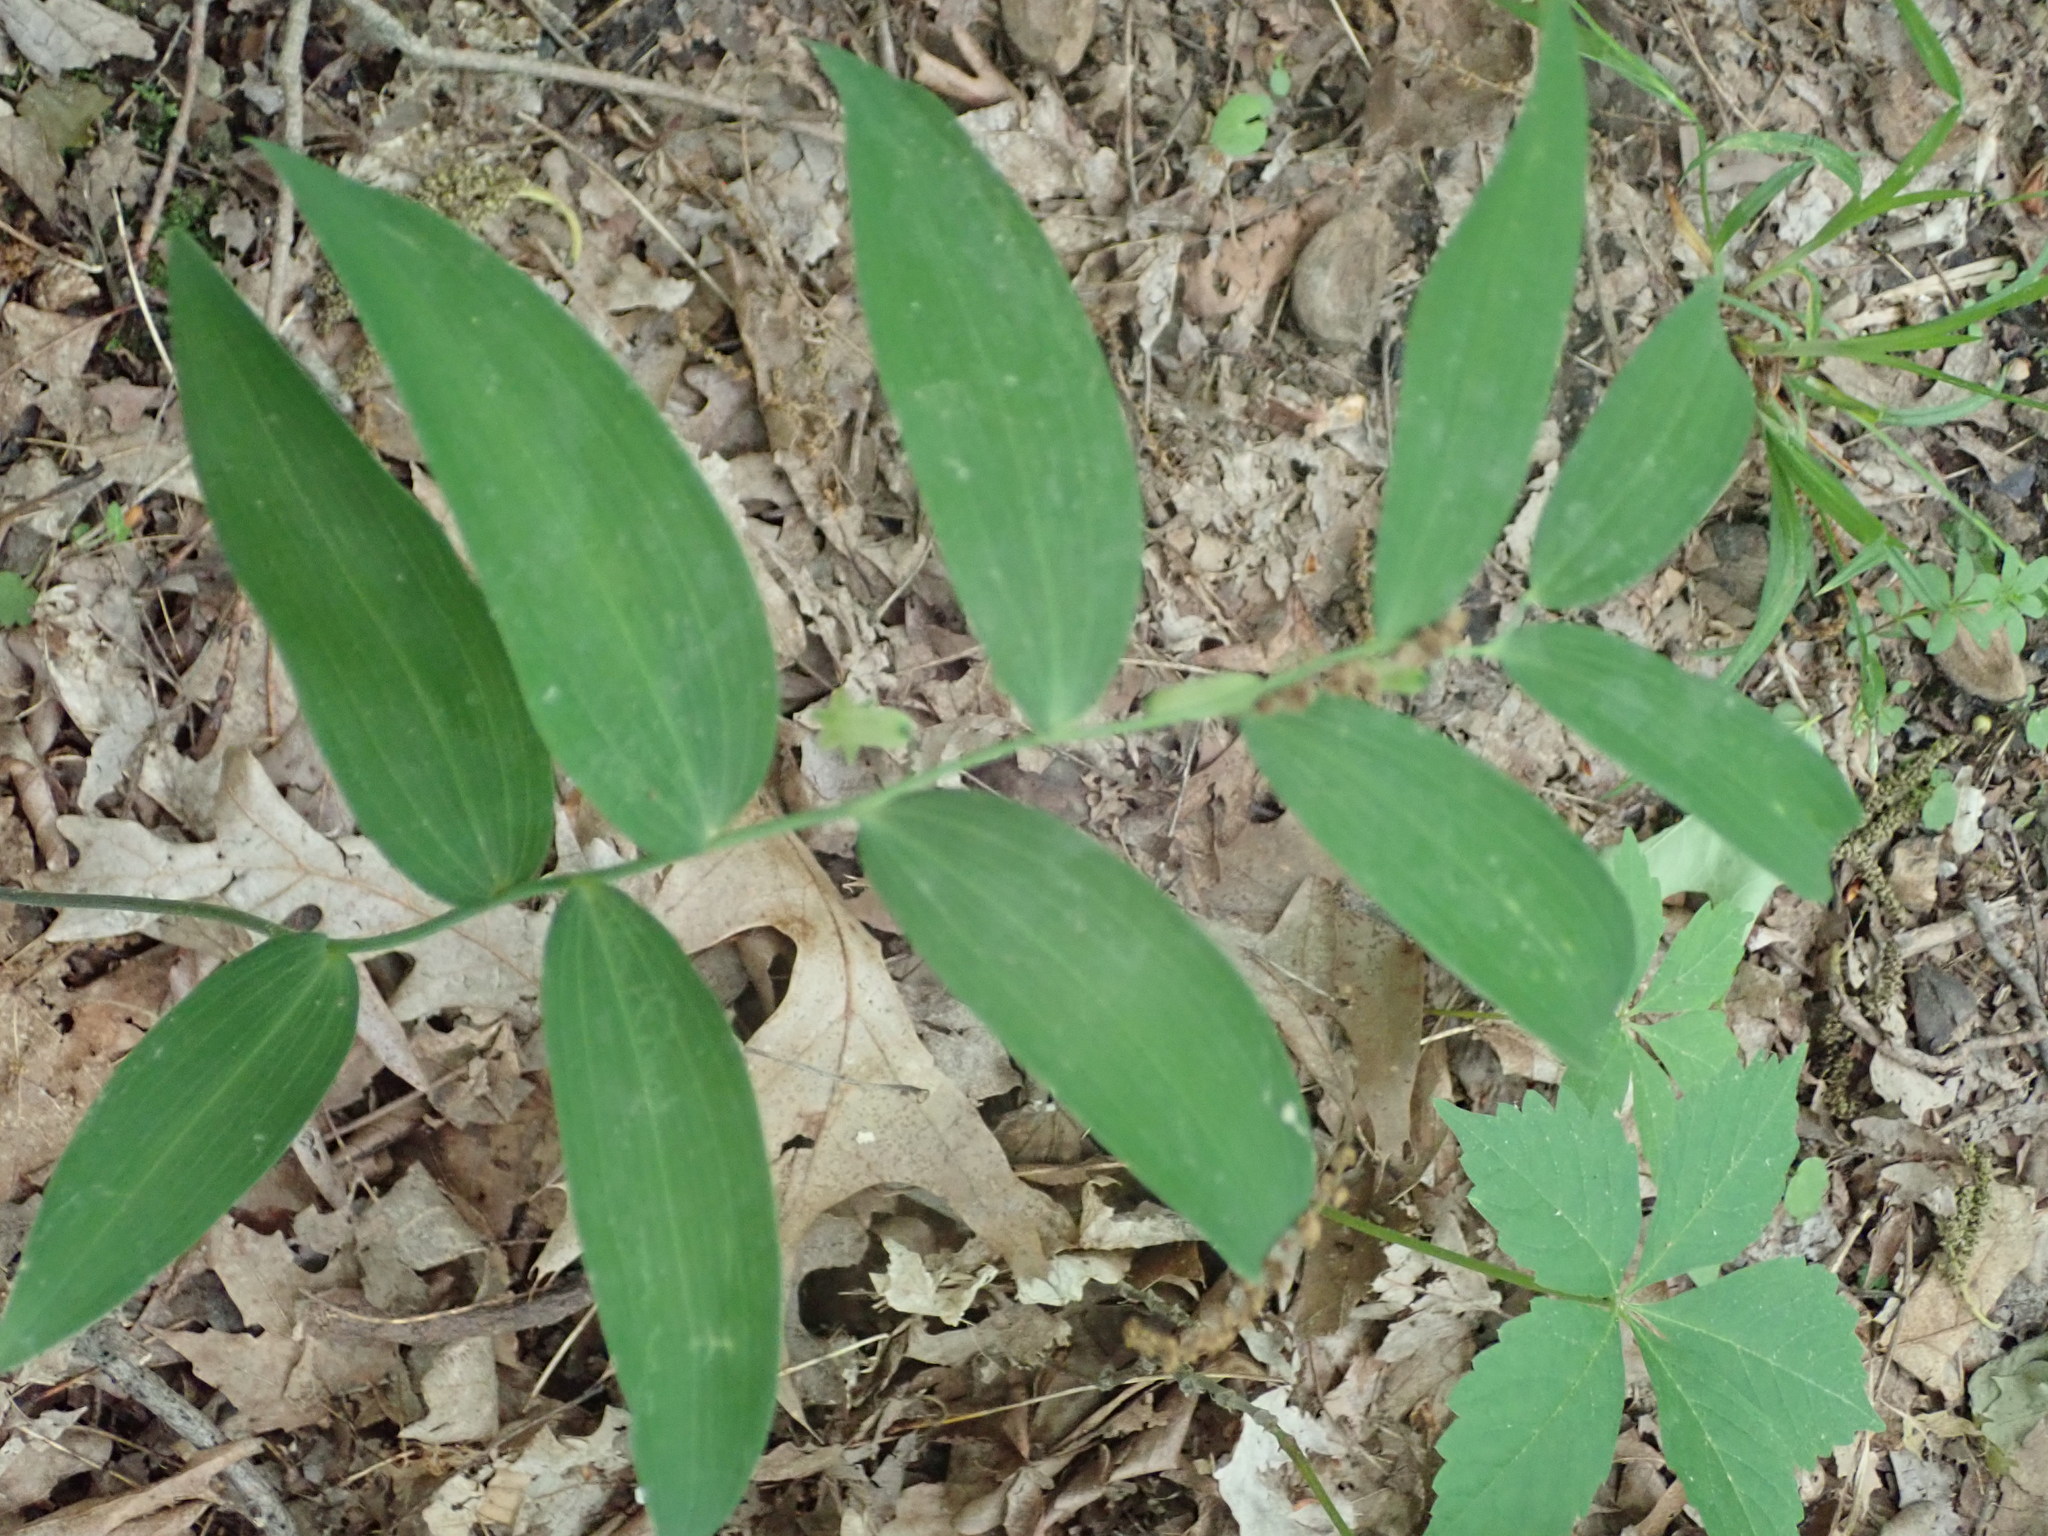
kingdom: Plantae
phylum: Tracheophyta
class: Liliopsida
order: Asparagales
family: Asparagaceae
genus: Polygonatum
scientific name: Polygonatum biflorum
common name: American solomon's-seal
